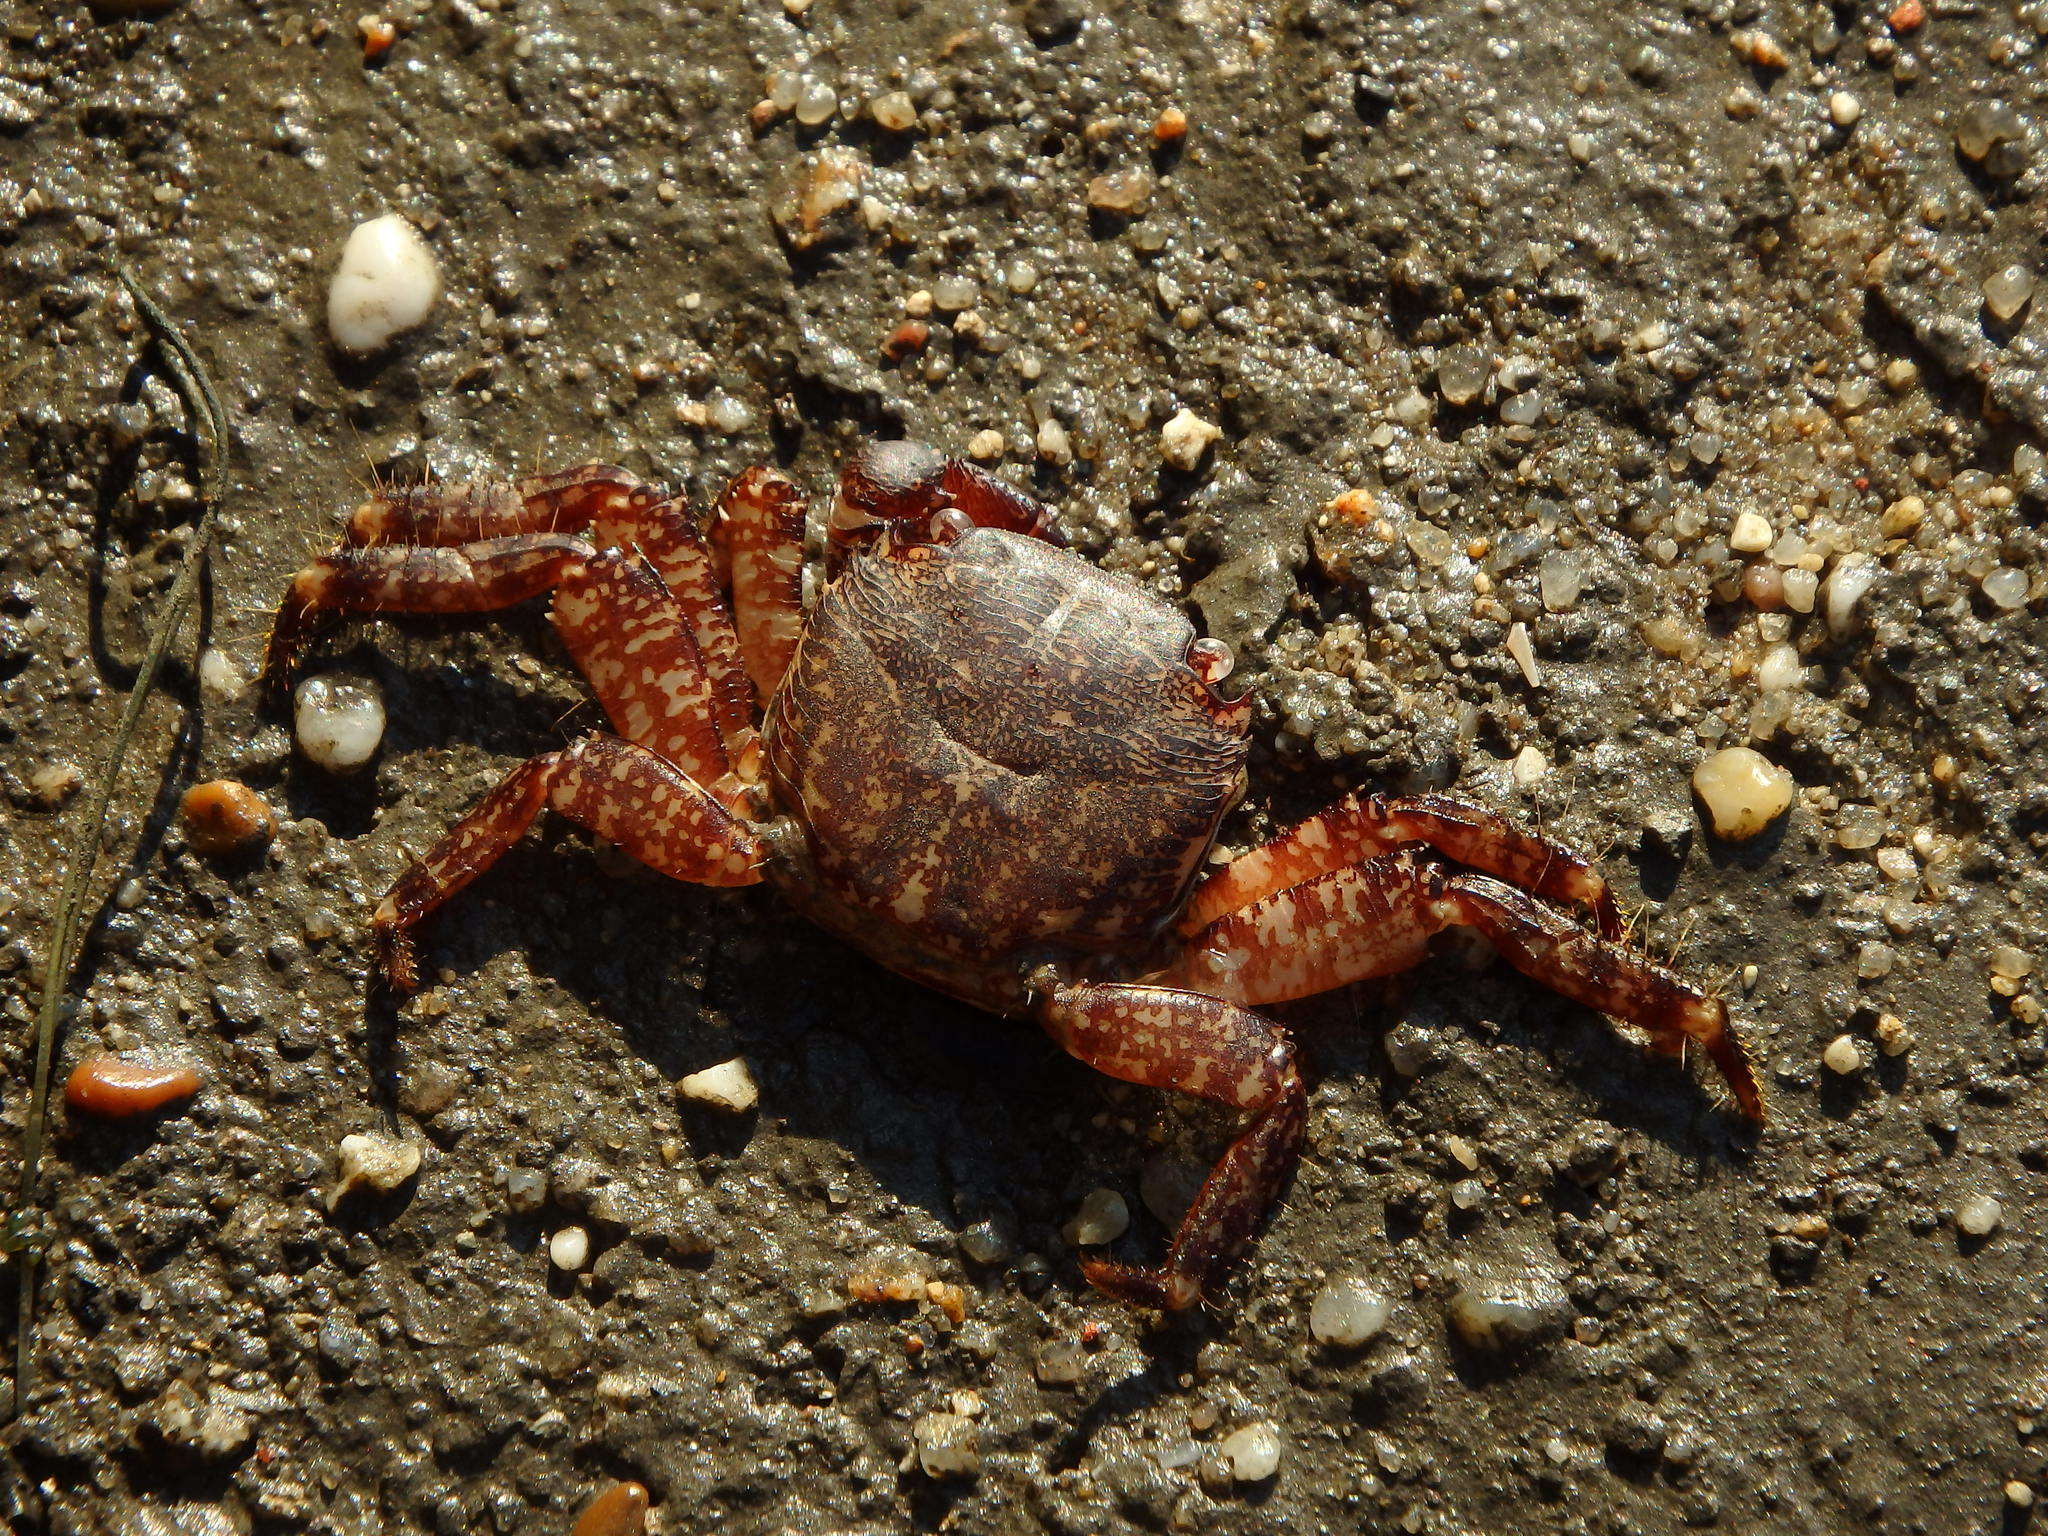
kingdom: Animalia
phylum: Arthropoda
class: Malacostraca
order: Decapoda
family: Grapsidae
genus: Pachygrapsus
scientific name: Pachygrapsus marmoratus
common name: Marbled rock crab
